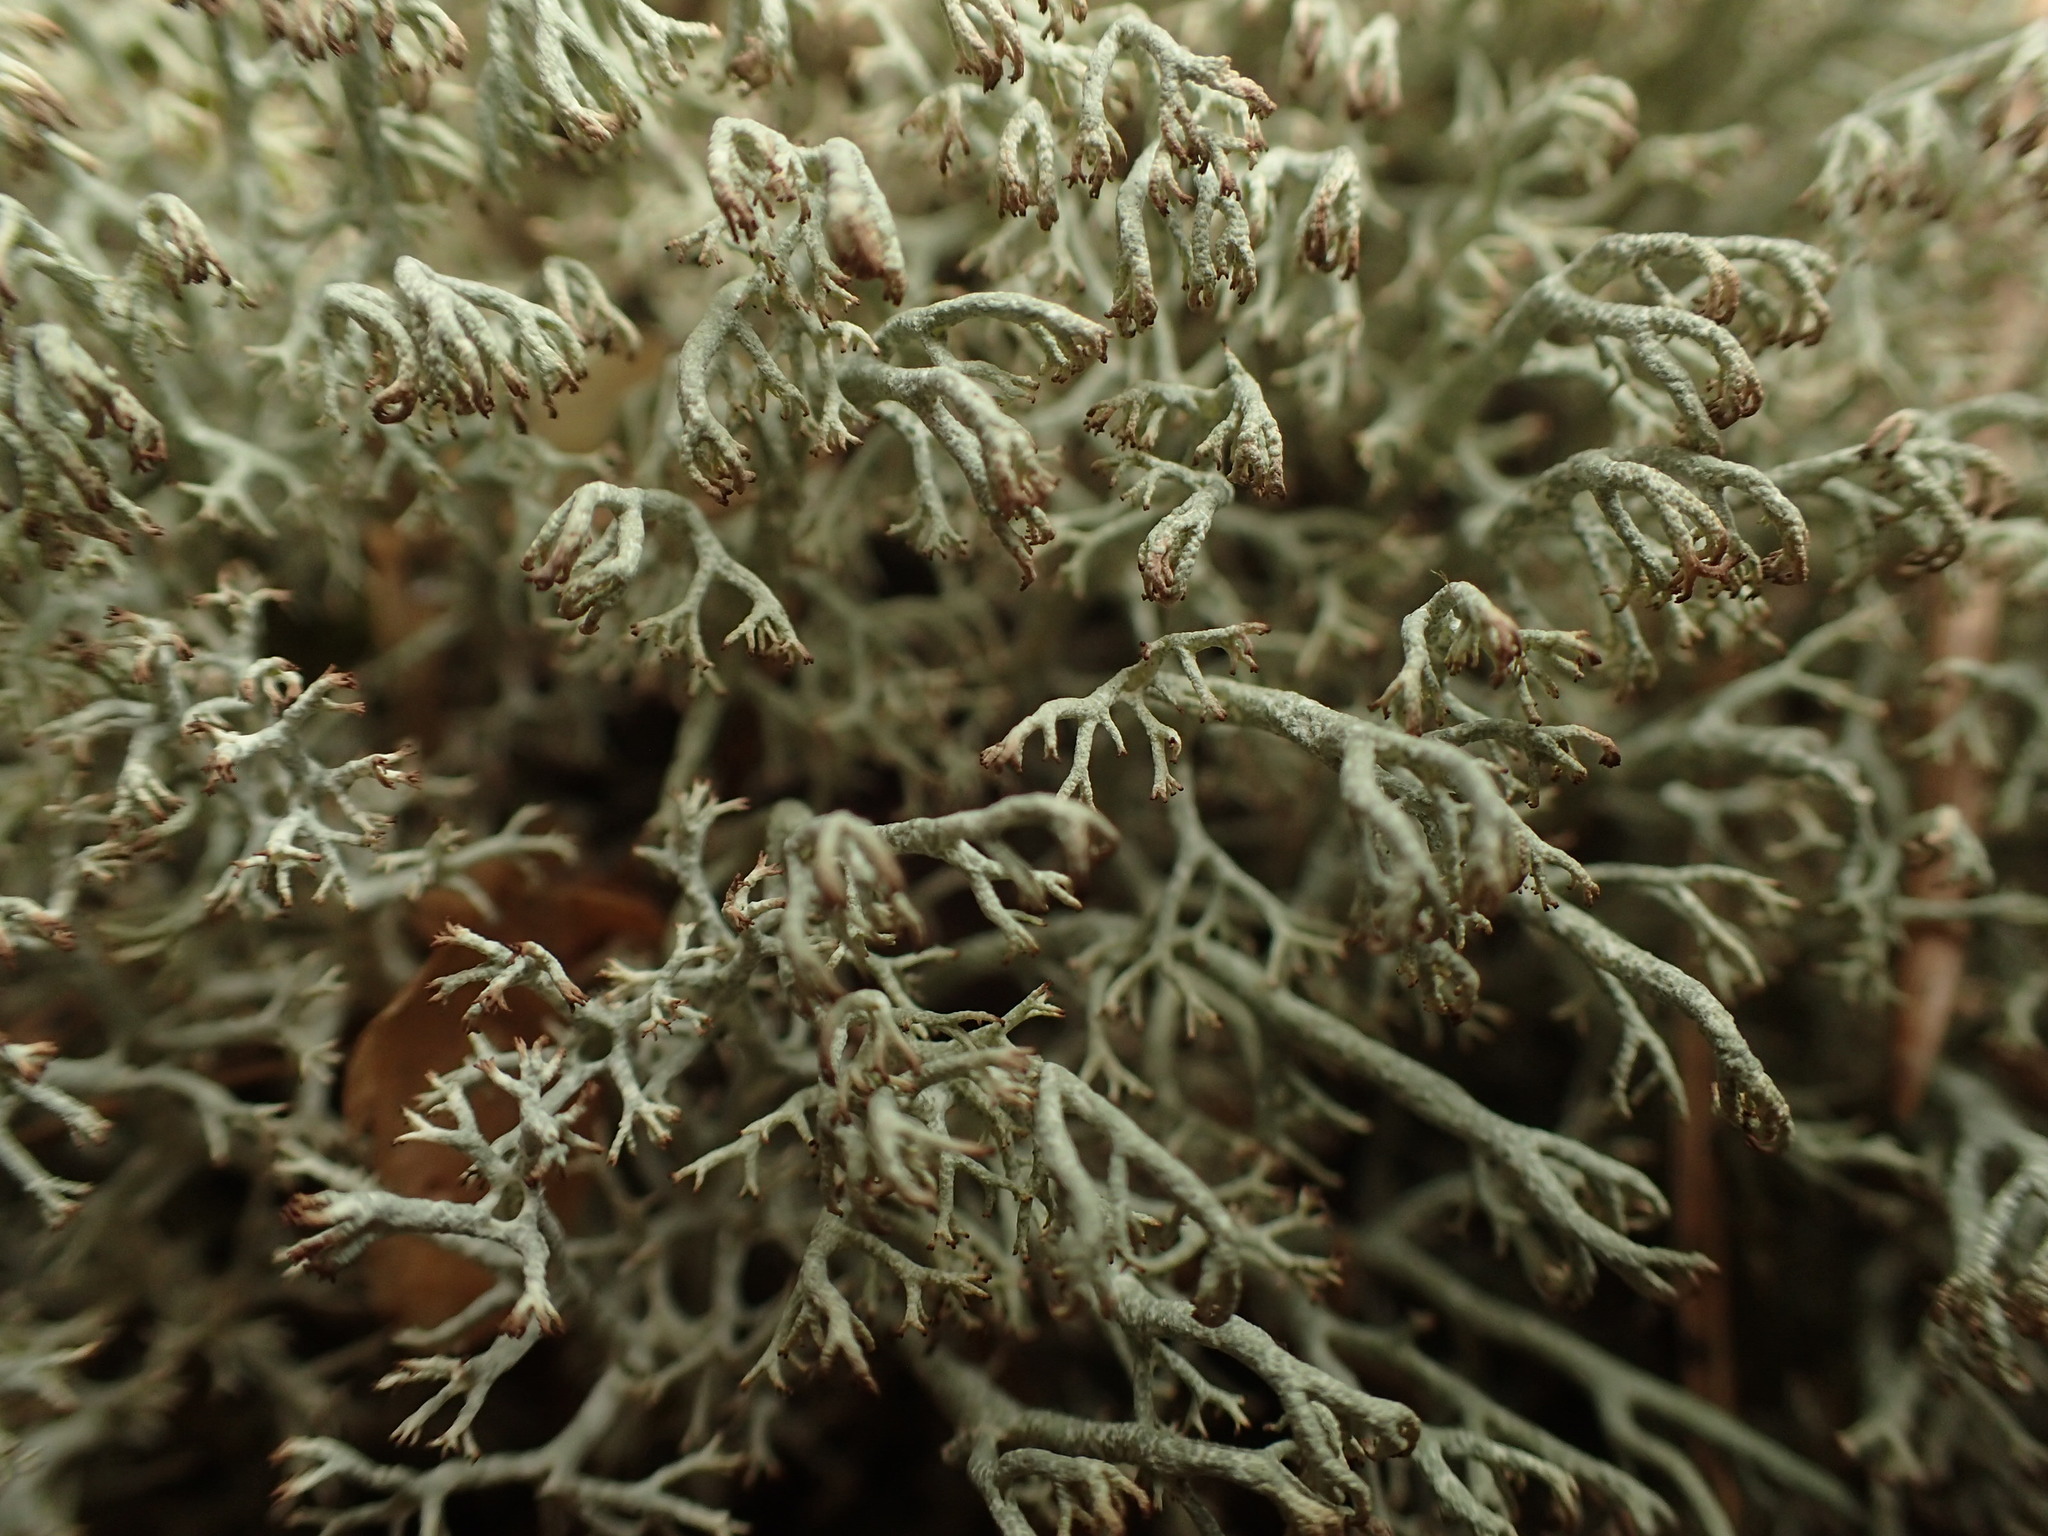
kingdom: Fungi
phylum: Ascomycota
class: Lecanoromycetes
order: Lecanorales
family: Cladoniaceae
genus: Cladonia
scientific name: Cladonia arbuscula
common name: Reindeer lichen
